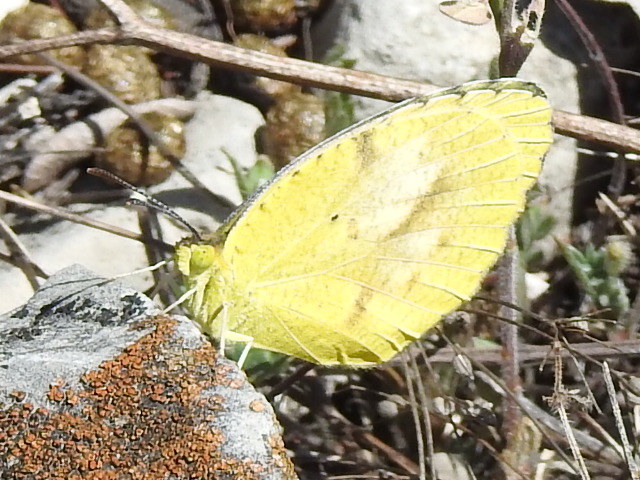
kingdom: Animalia
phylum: Arthropoda
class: Insecta
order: Lepidoptera
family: Pieridae
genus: Abaeis
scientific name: Abaeis nicippe
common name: Sleepy orange
